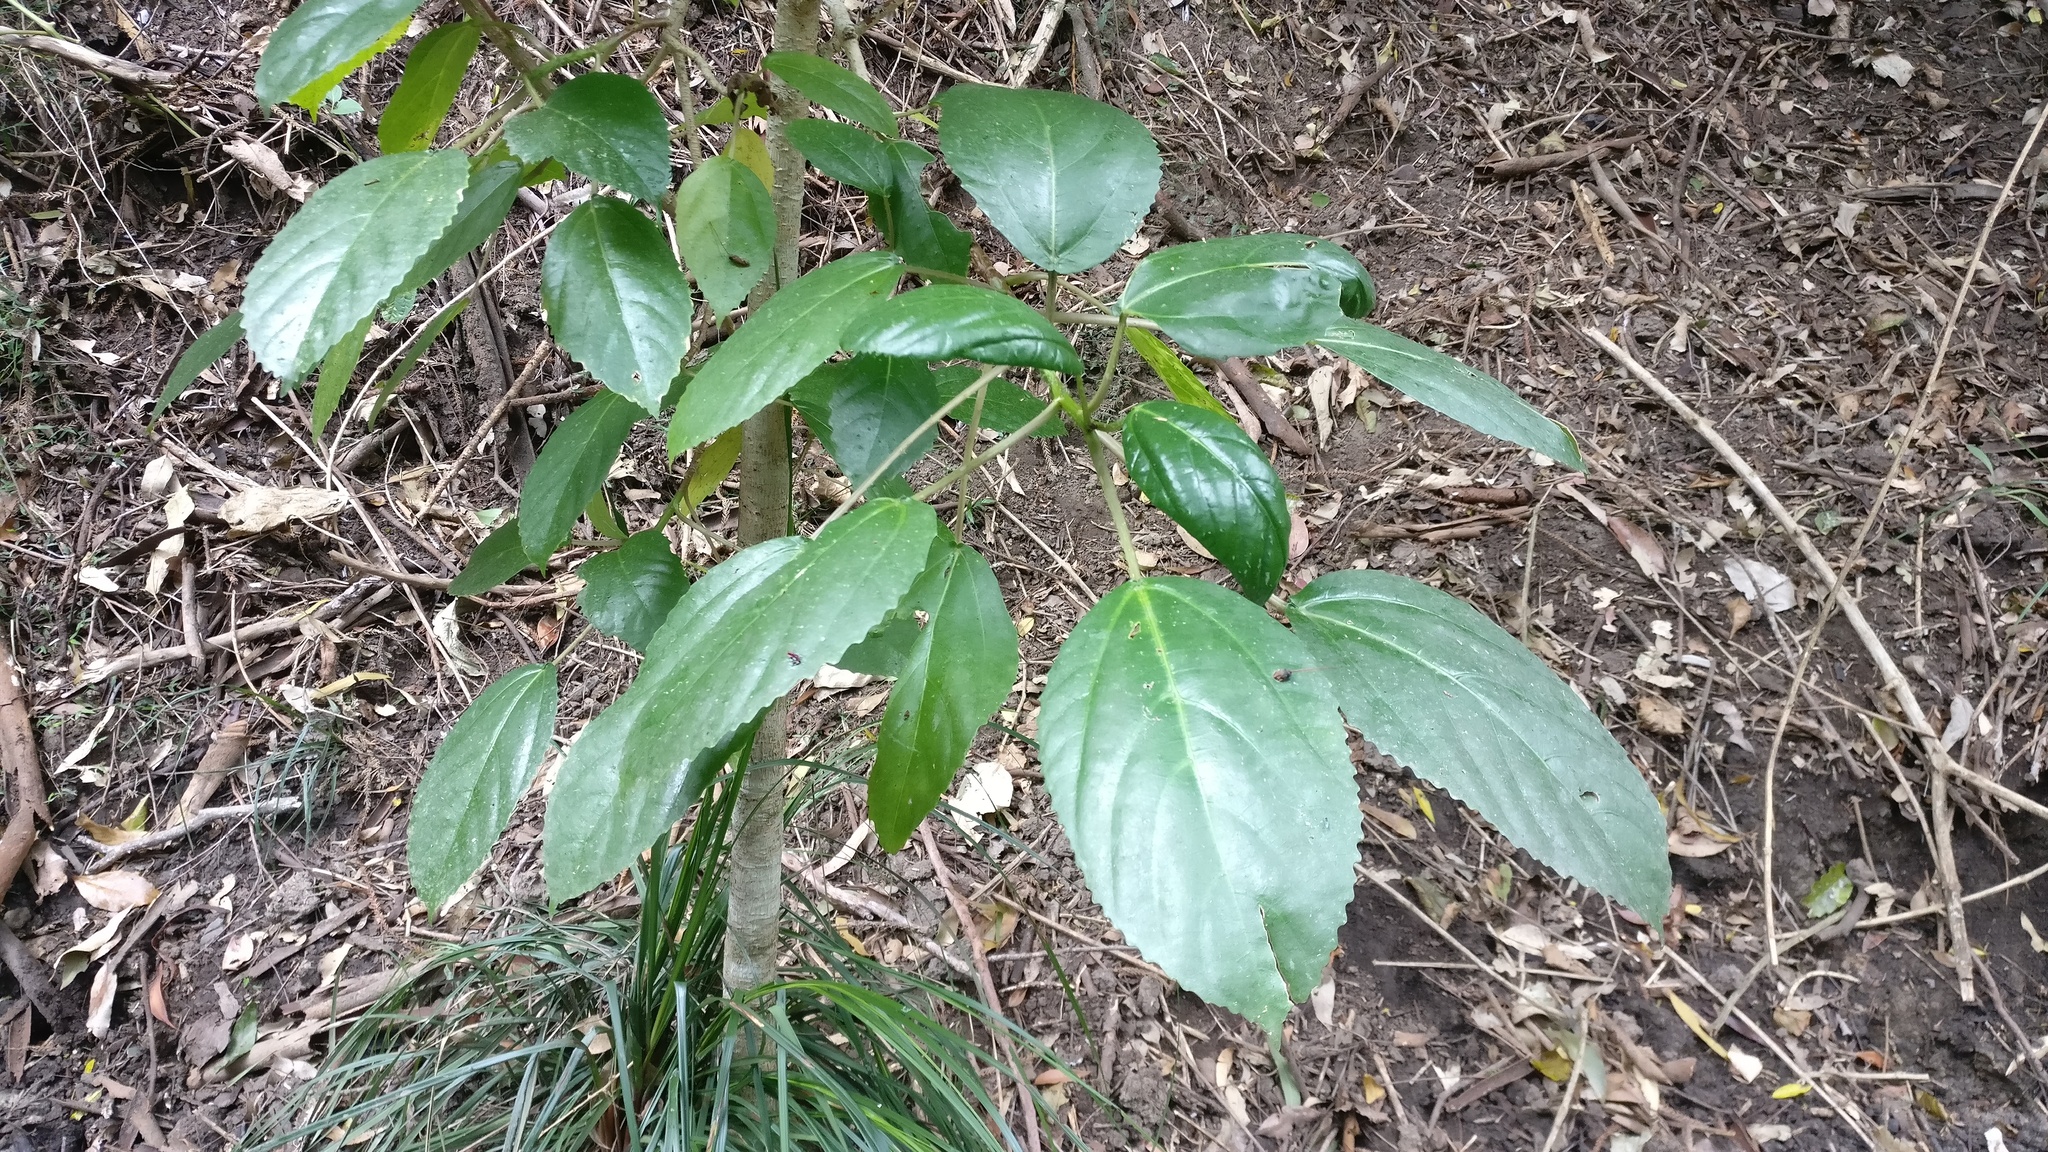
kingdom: Plantae
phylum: Tracheophyta
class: Magnoliopsida
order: Rosales
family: Urticaceae
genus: Dendrocnide
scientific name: Dendrocnide photiniphylla
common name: Shiny-leaved stinging tree
